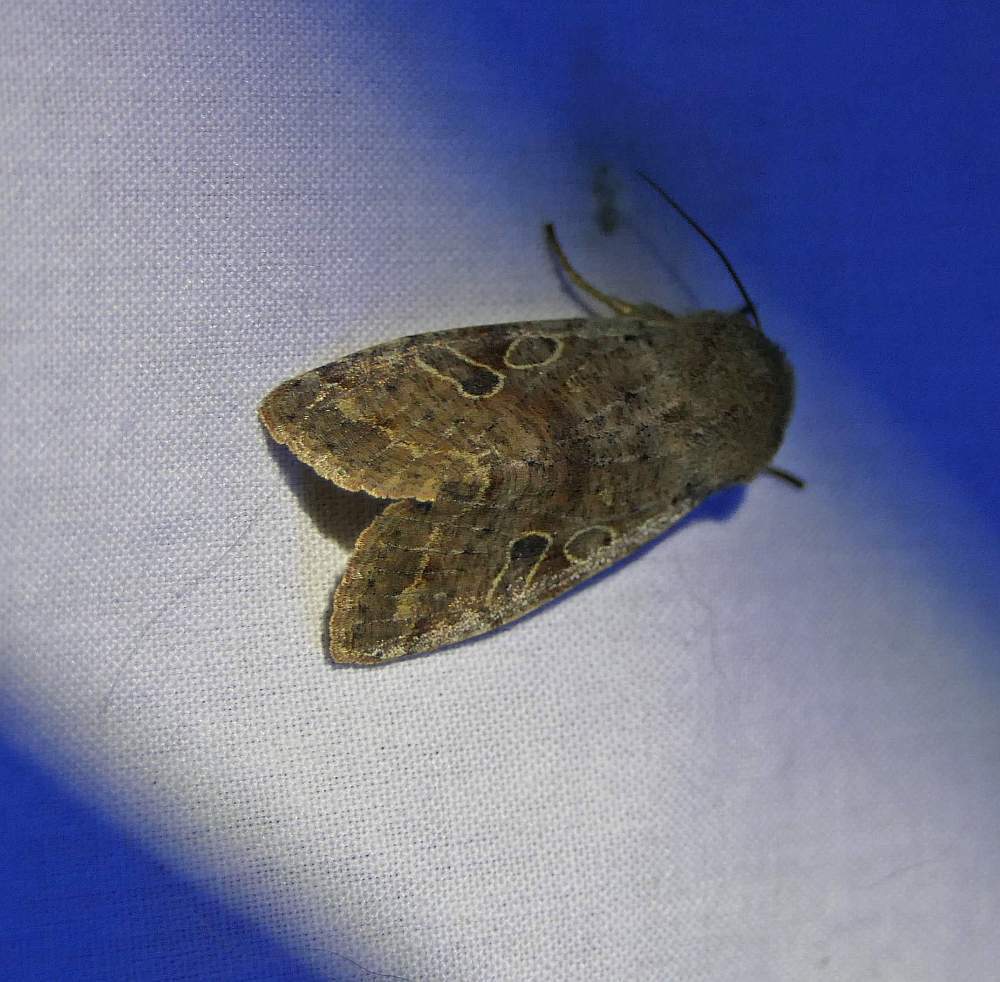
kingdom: Animalia
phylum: Arthropoda
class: Insecta
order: Lepidoptera
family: Noctuidae
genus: Orthosia
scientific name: Orthosia hibisci
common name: Green fruitworm
